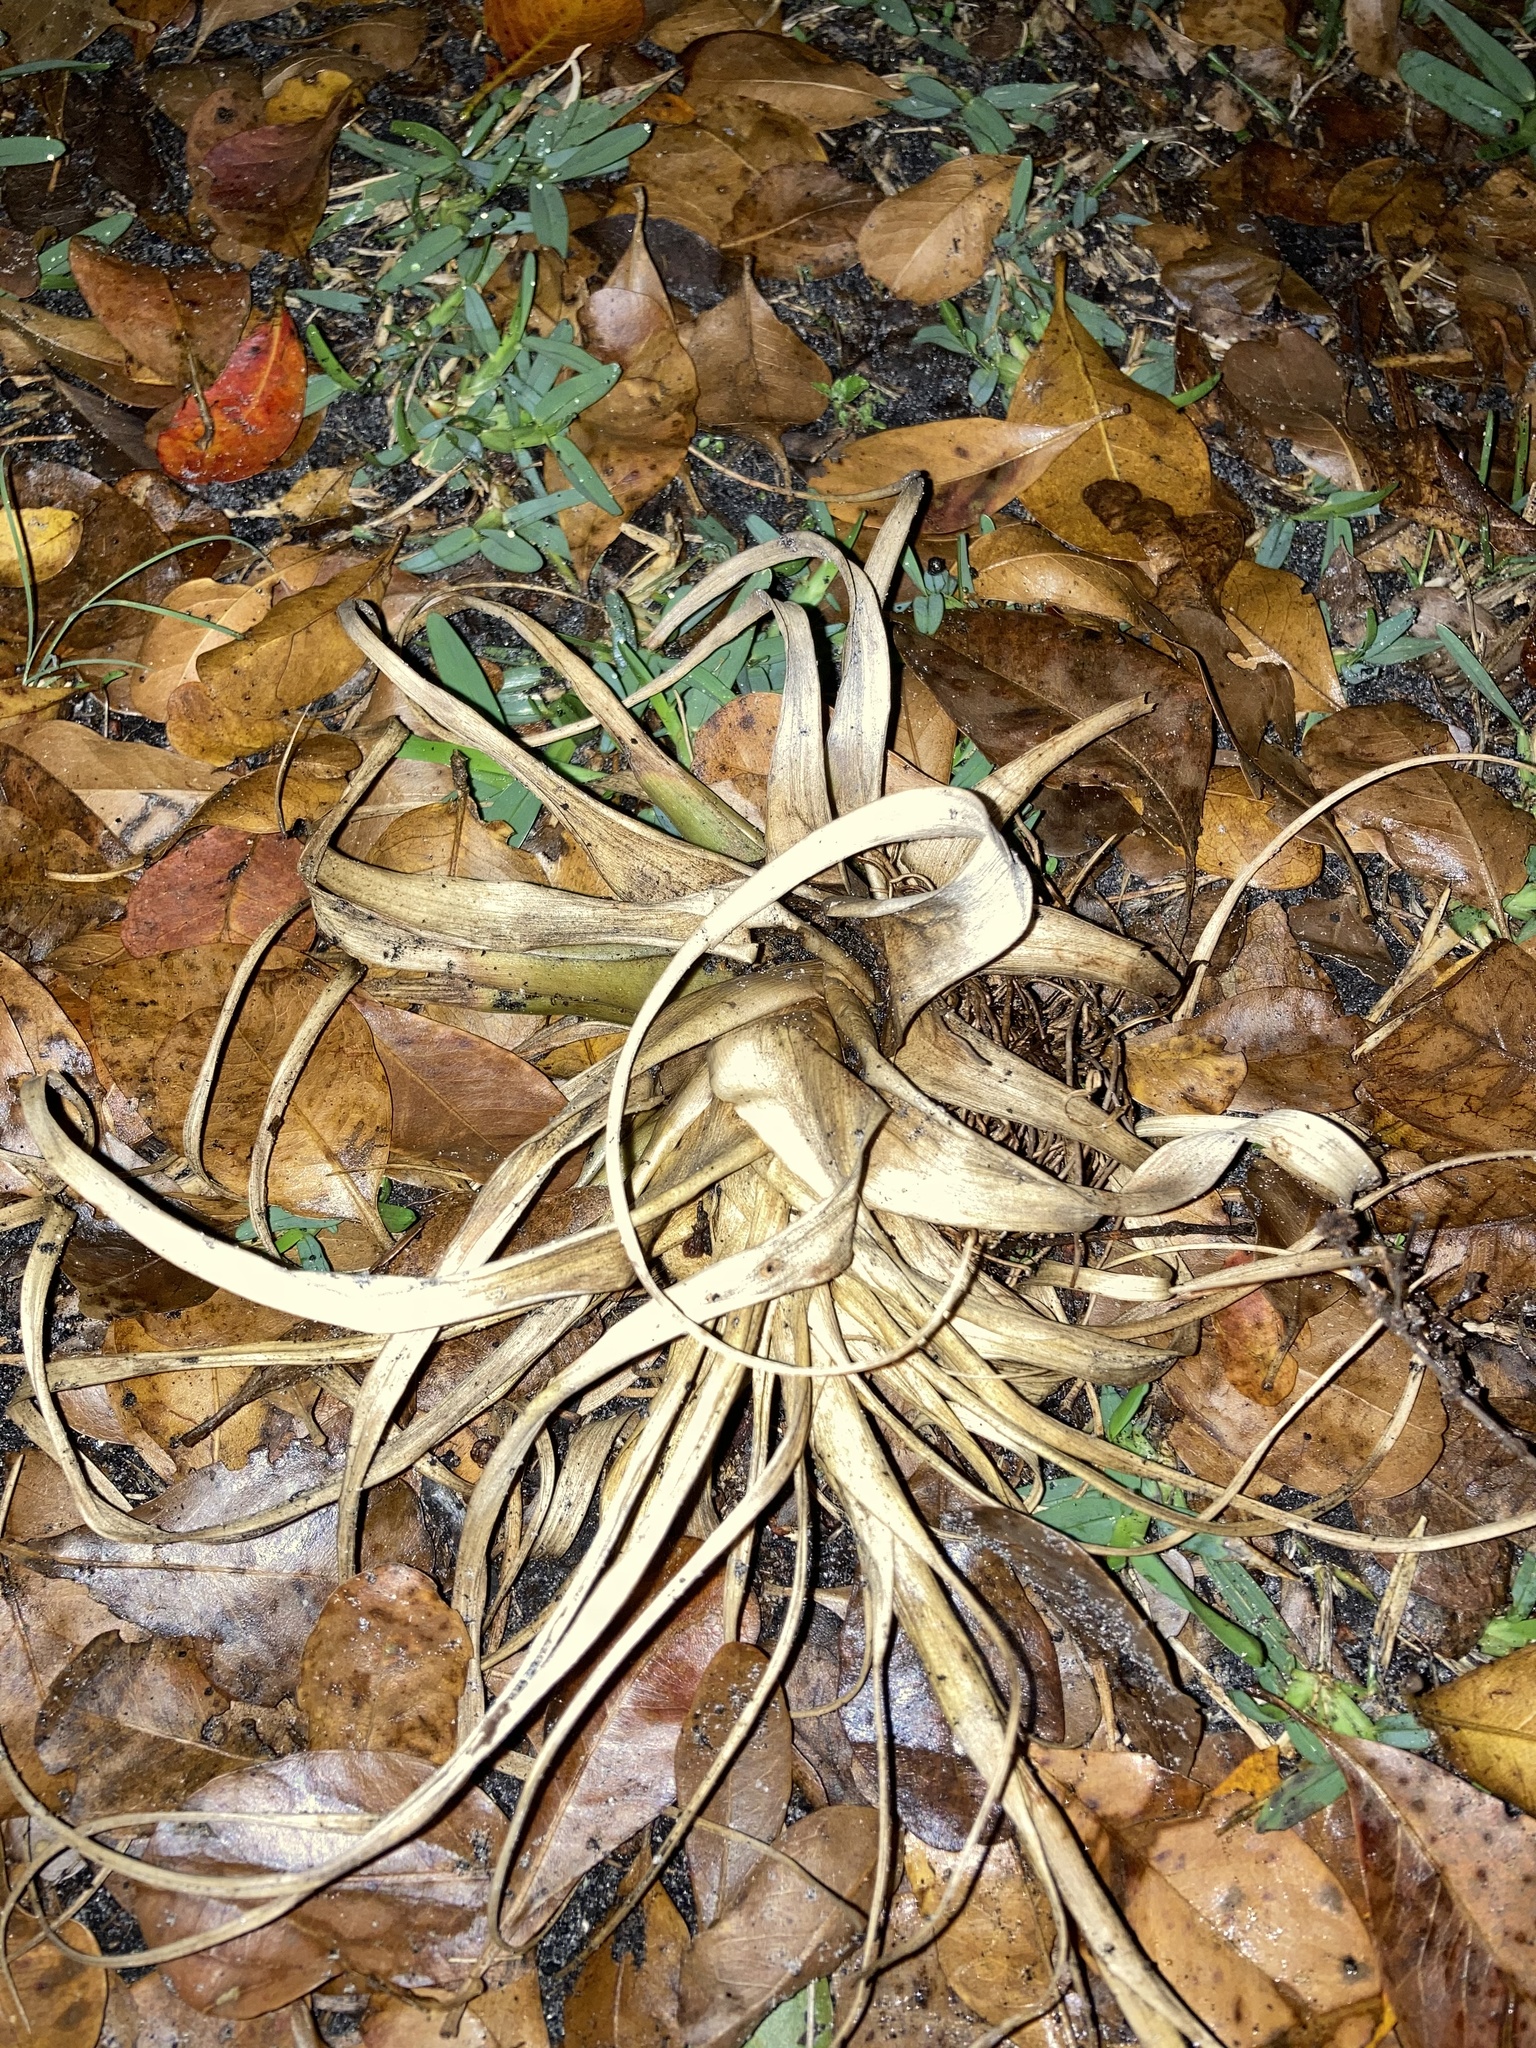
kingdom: Plantae
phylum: Tracheophyta
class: Liliopsida
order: Poales
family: Bromeliaceae
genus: Tillandsia
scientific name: Tillandsia utriculata
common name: Wild pine
